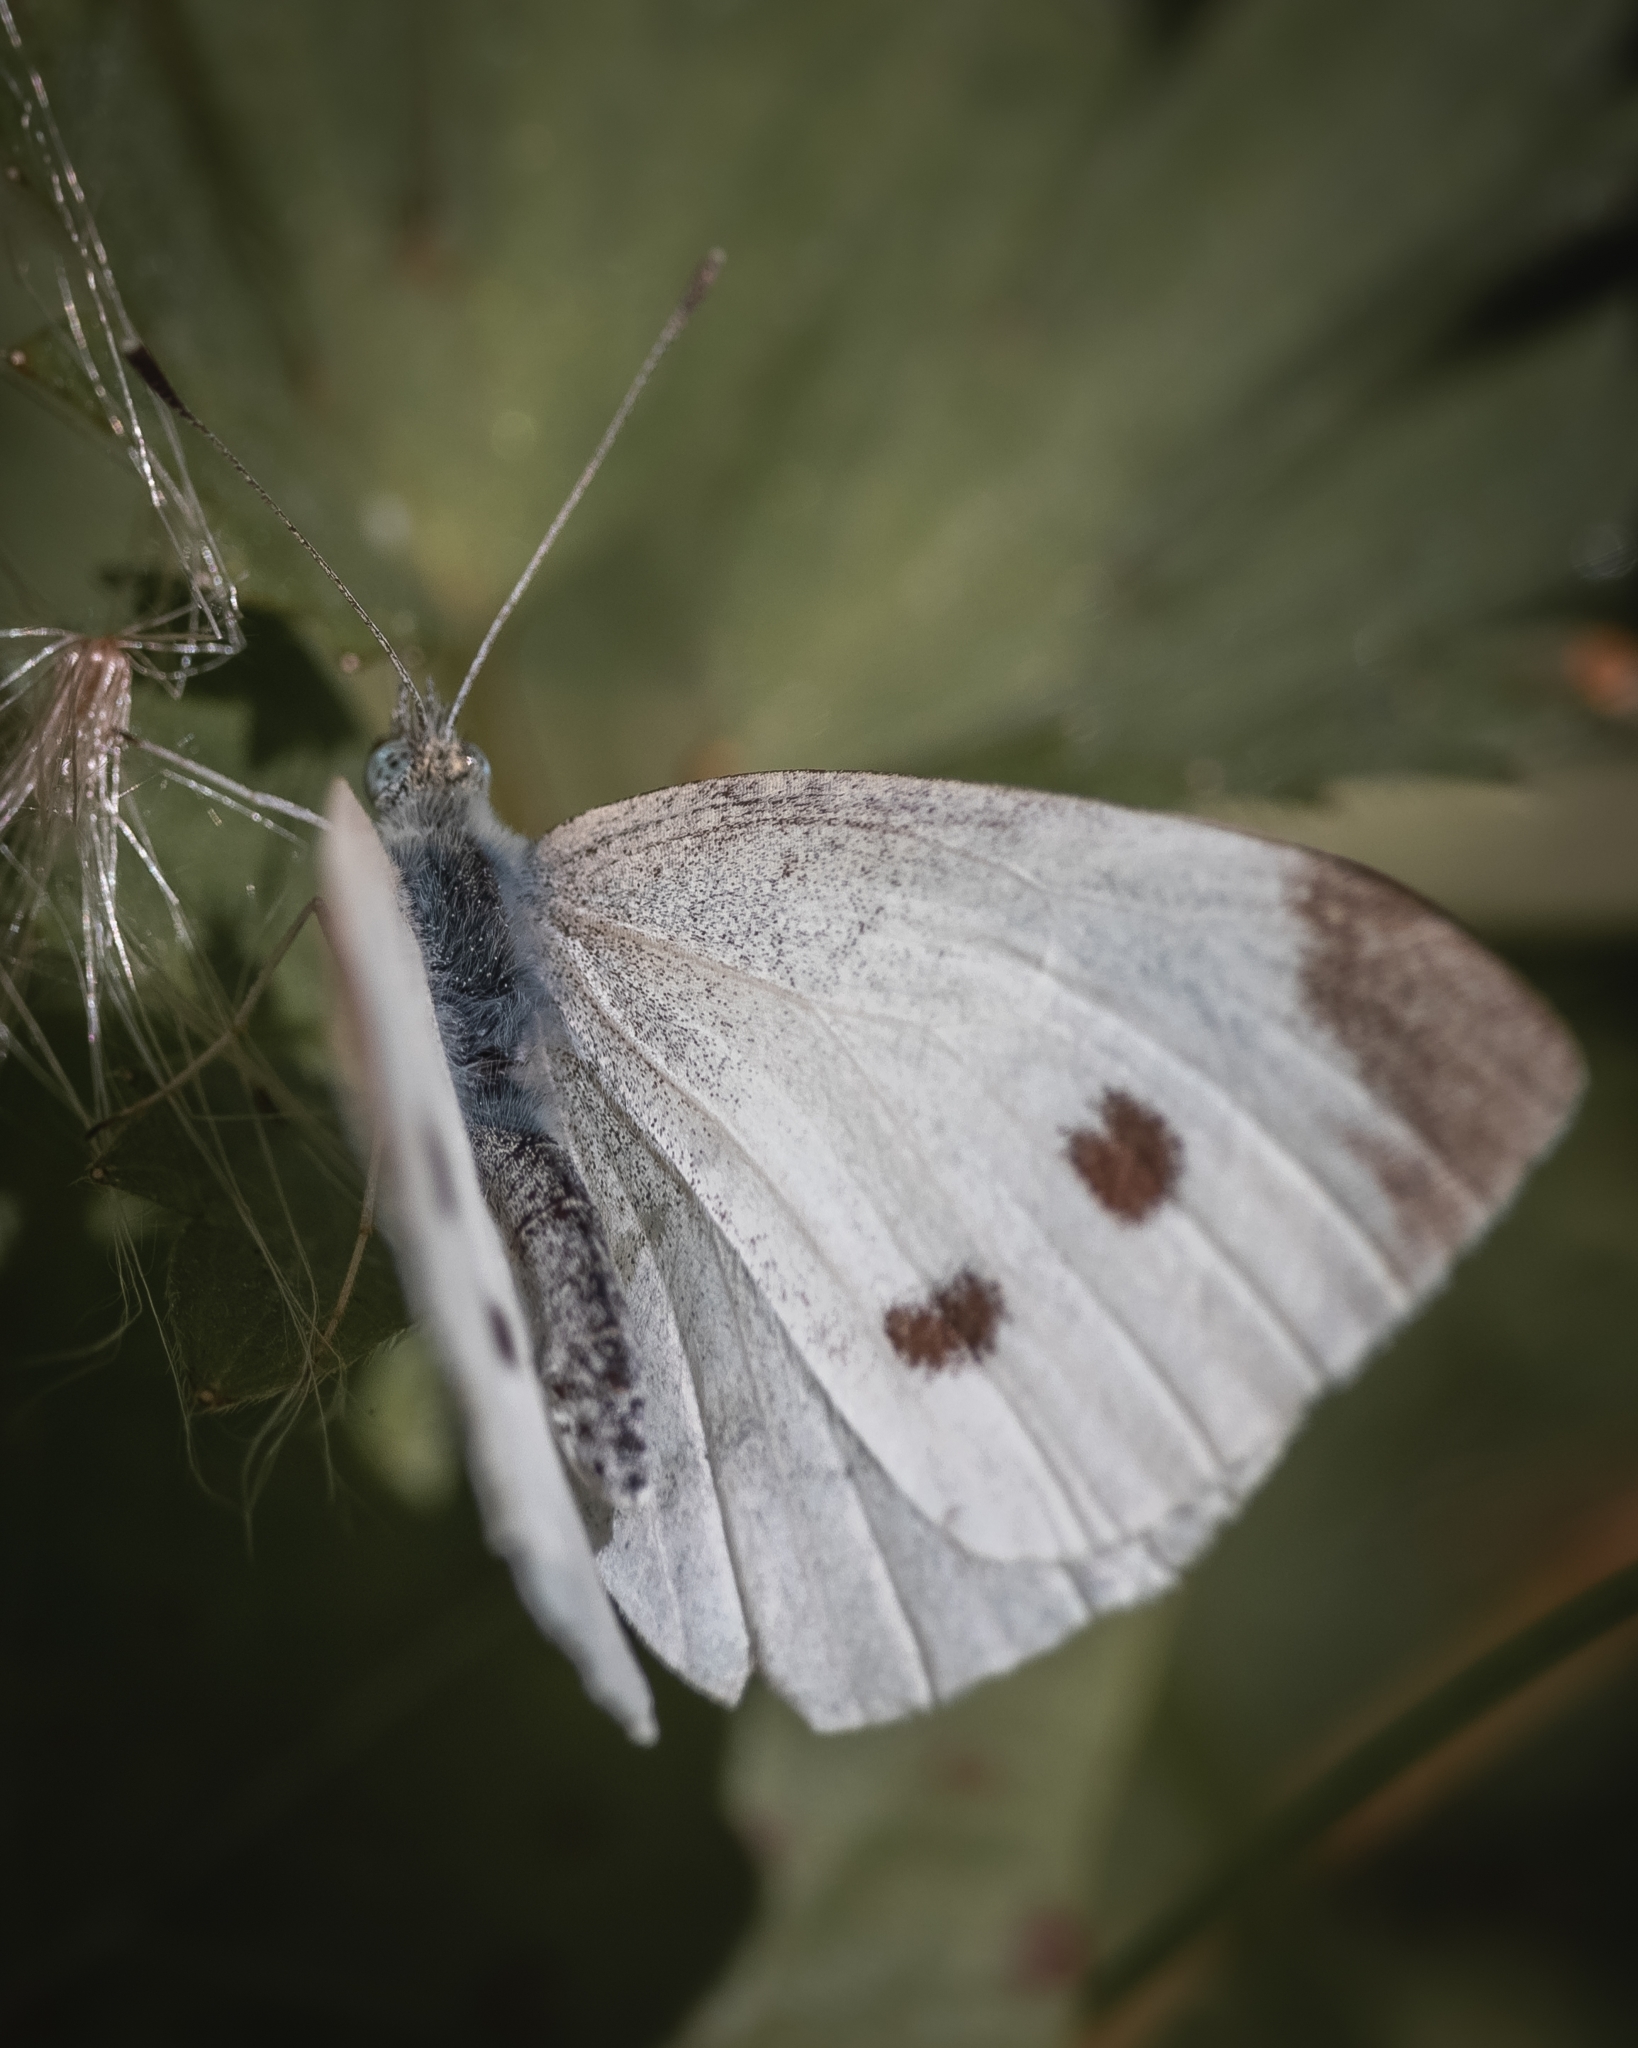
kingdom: Animalia
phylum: Arthropoda
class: Insecta
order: Lepidoptera
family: Pieridae
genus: Pieris
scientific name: Pieris rapae
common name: Small white
